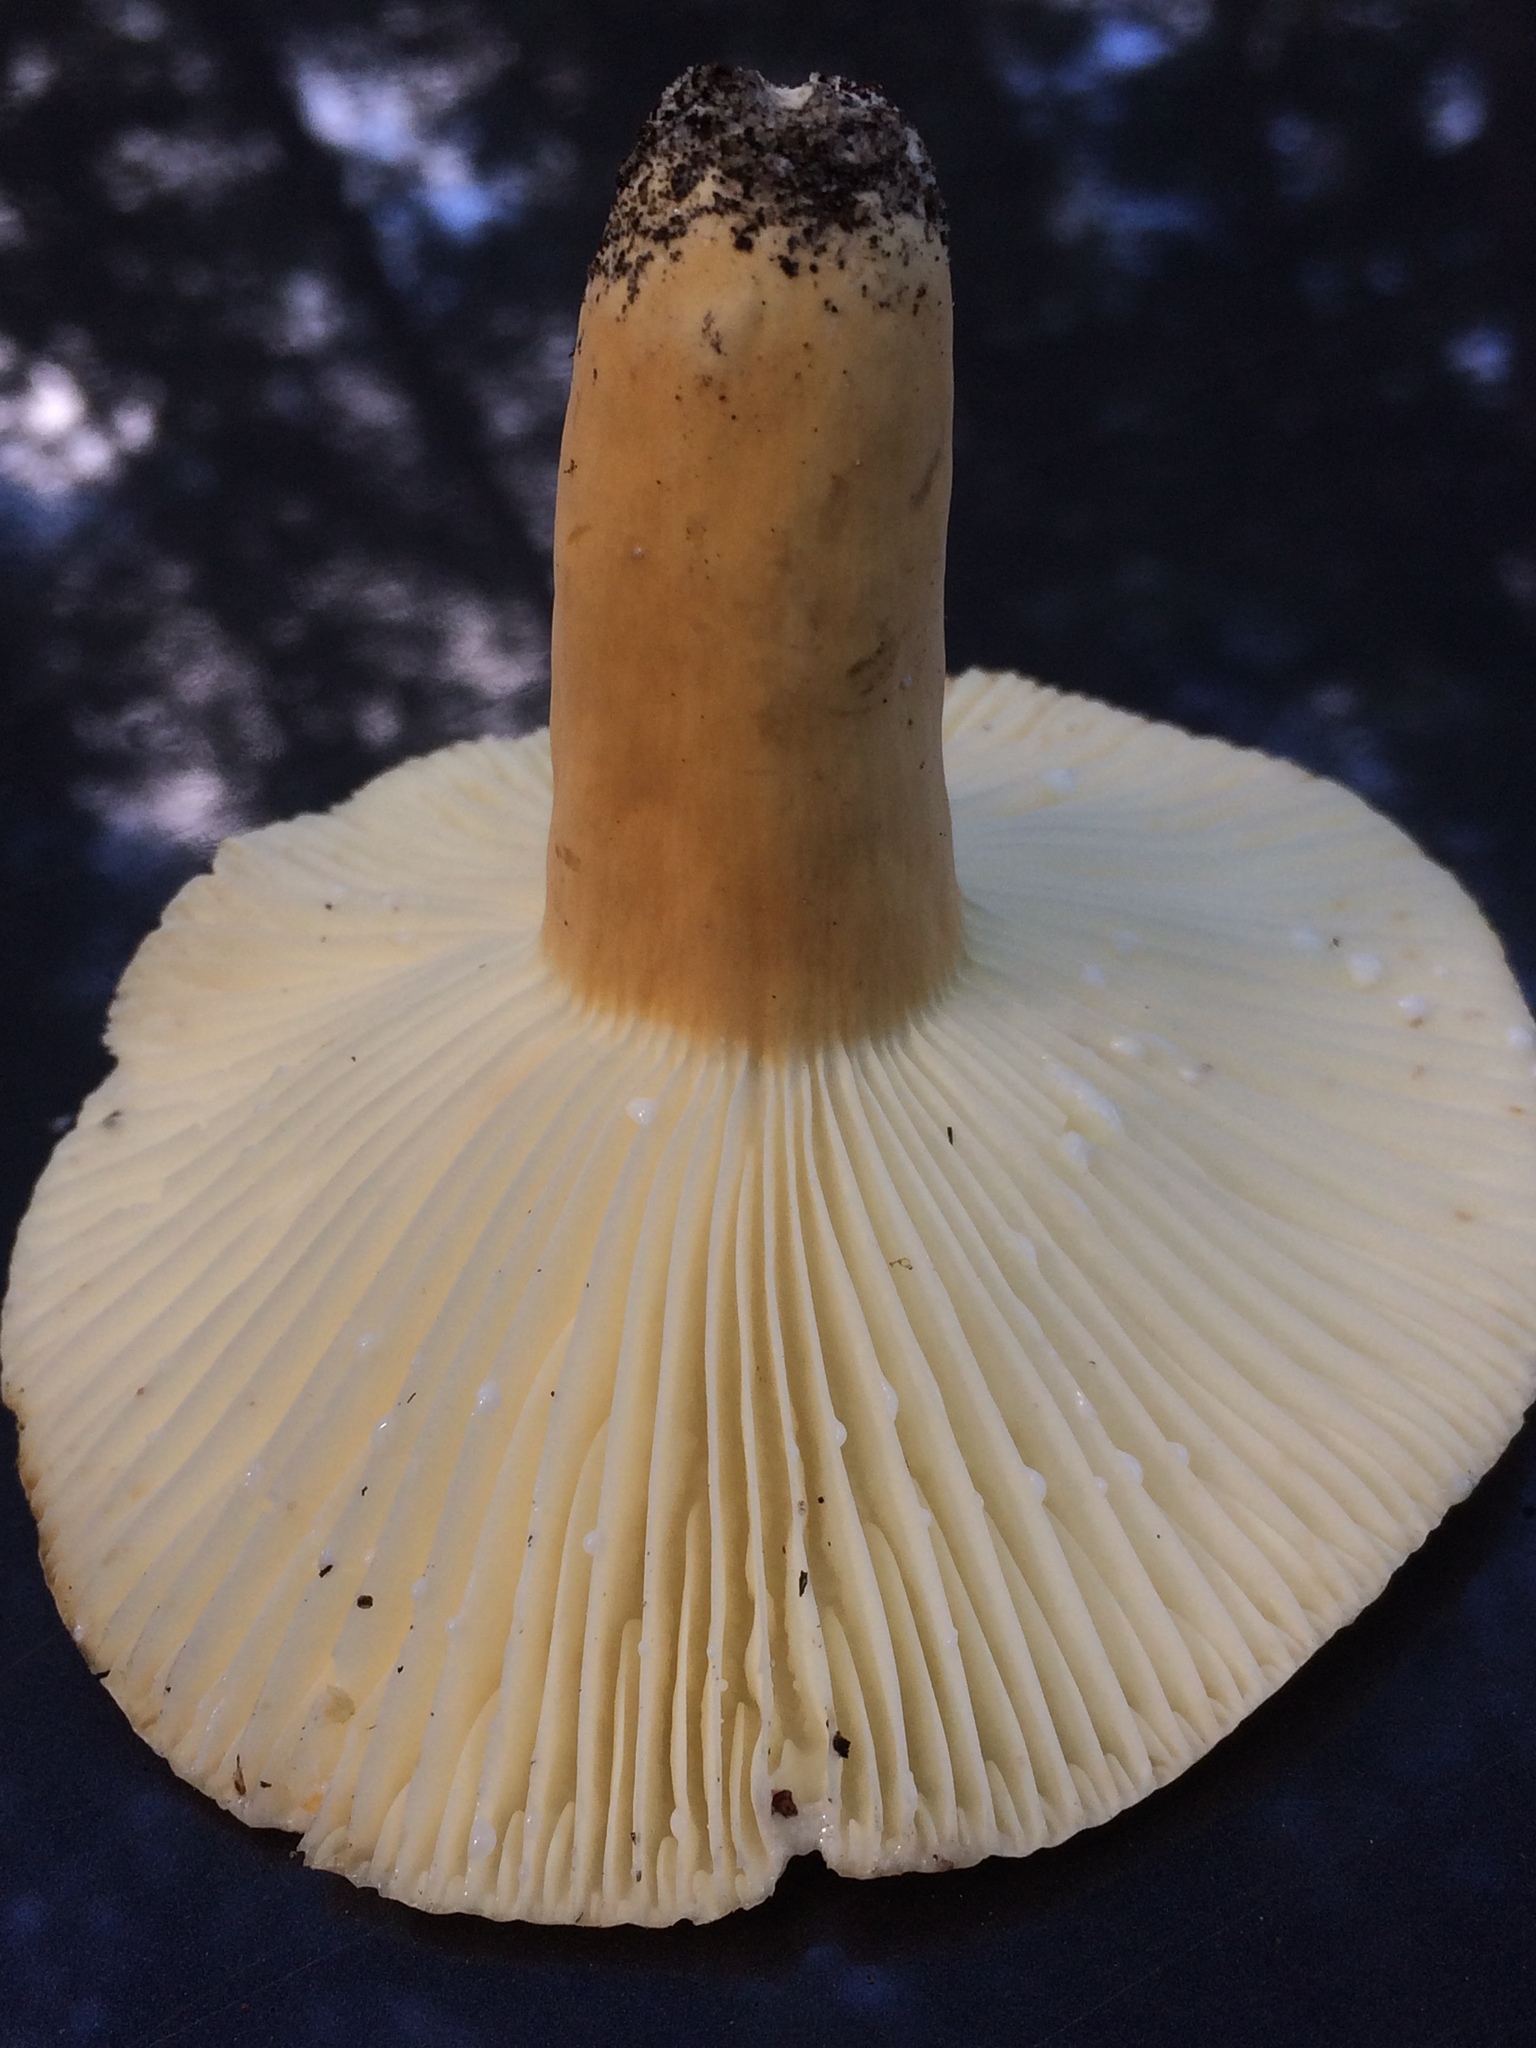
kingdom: Fungi
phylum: Basidiomycota
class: Agaricomycetes
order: Russulales
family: Russulaceae
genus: Lactarius
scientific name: Lactarius hygrophoroides
